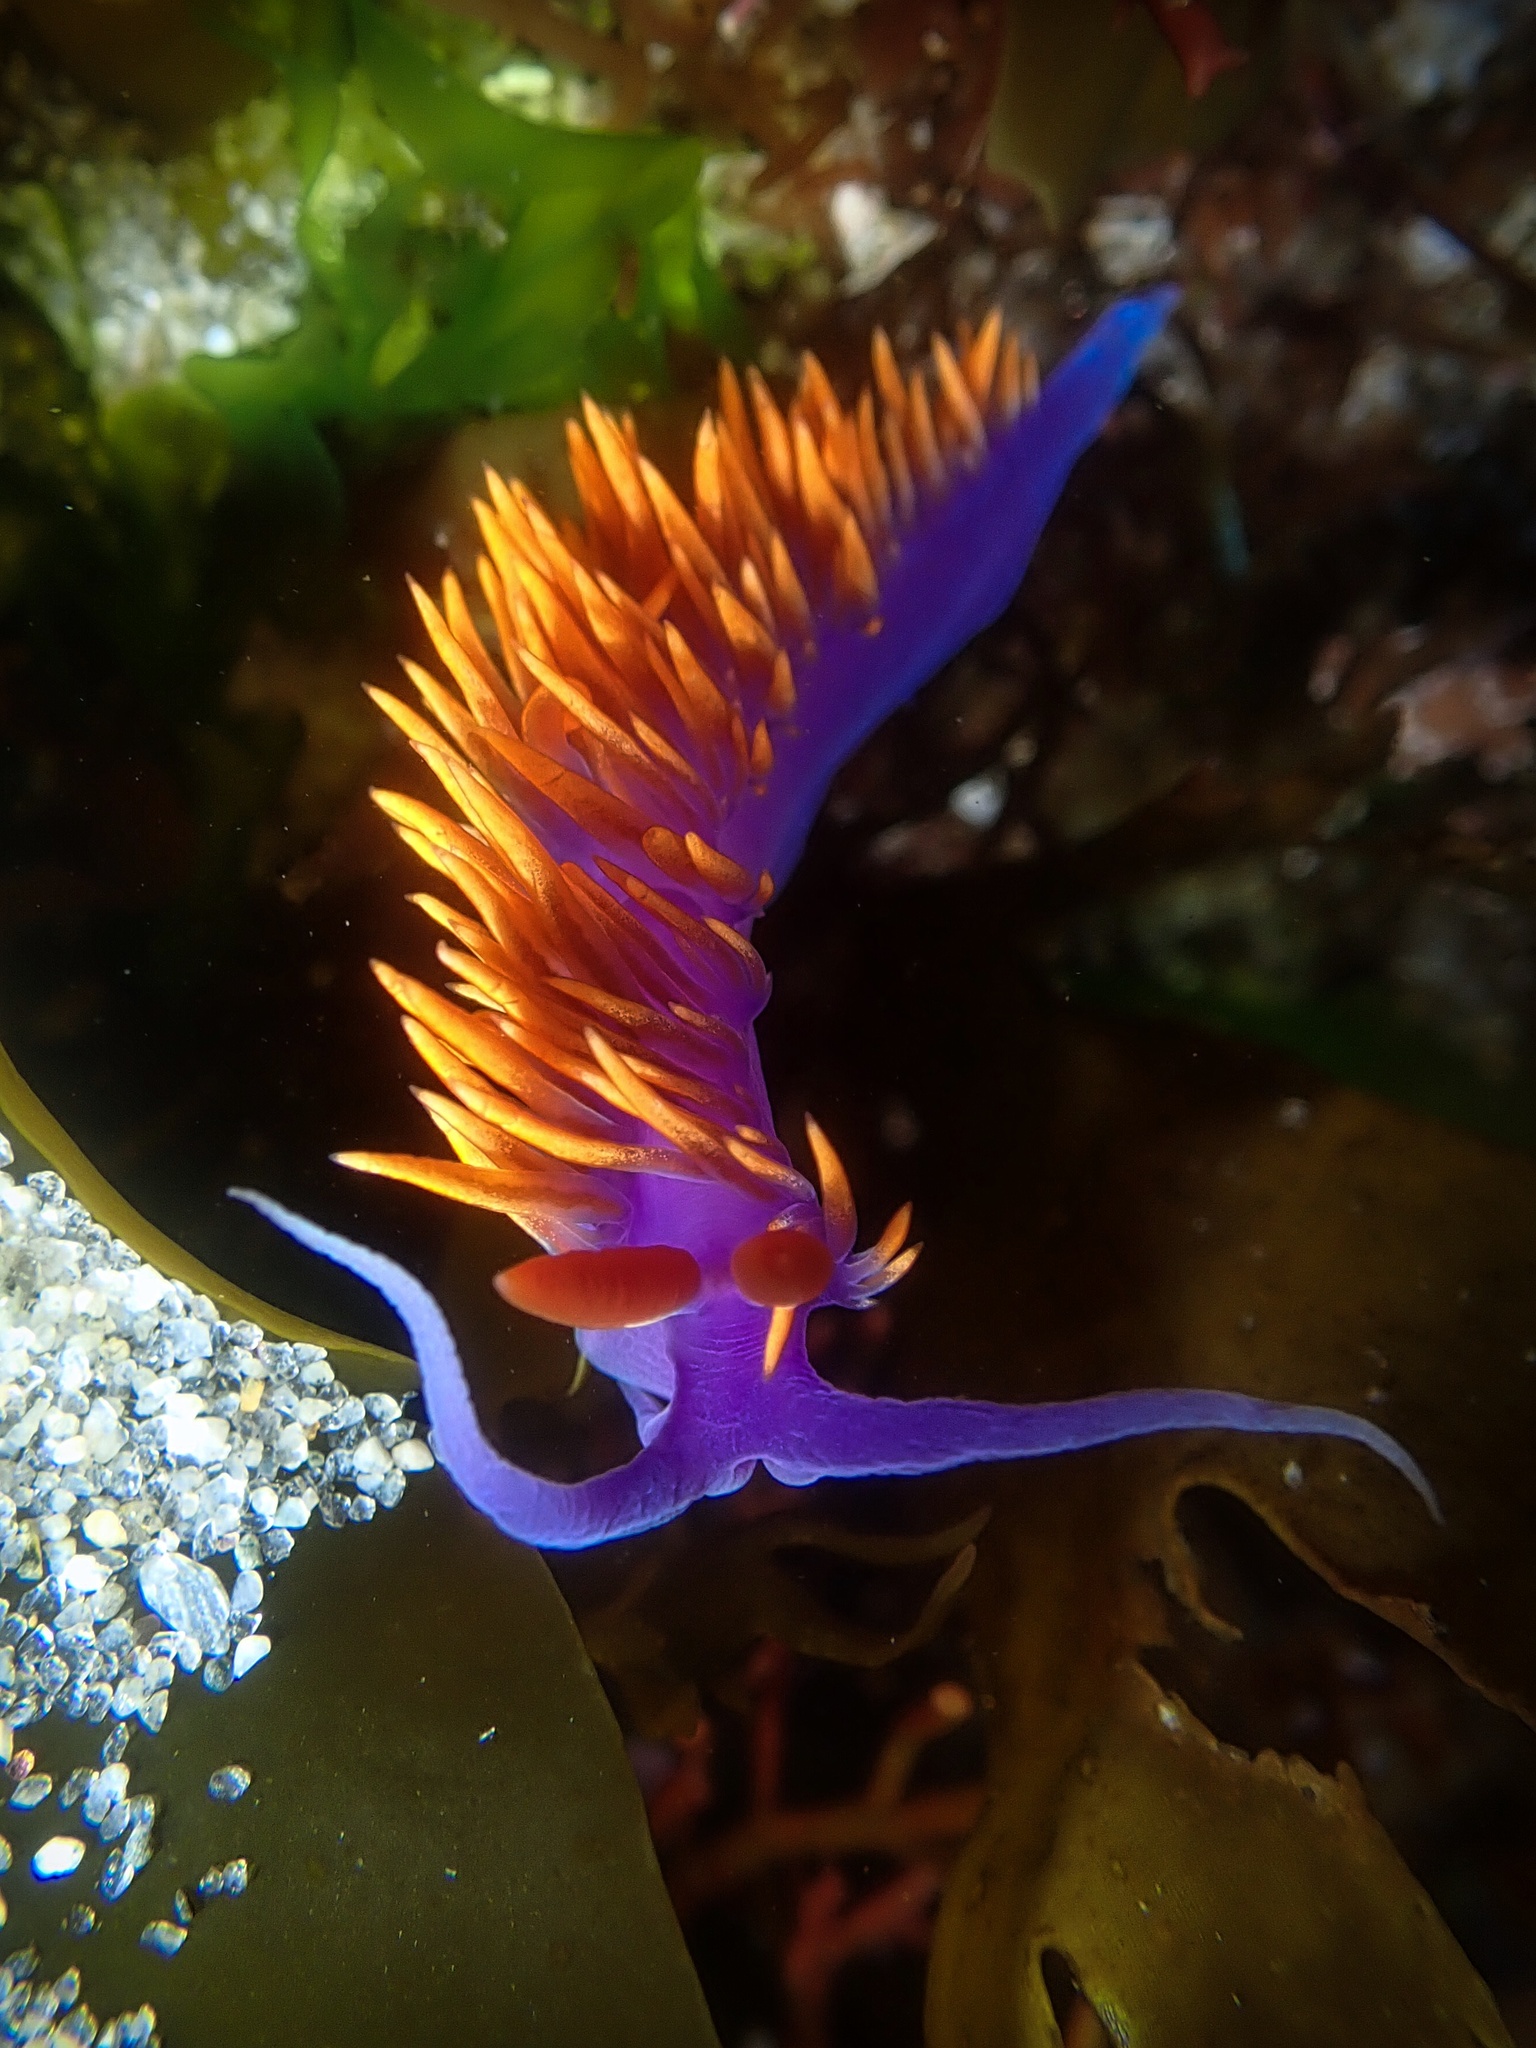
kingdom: Animalia
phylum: Mollusca
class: Gastropoda
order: Nudibranchia
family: Flabellinopsidae
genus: Flabellinopsis
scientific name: Flabellinopsis iodinea
